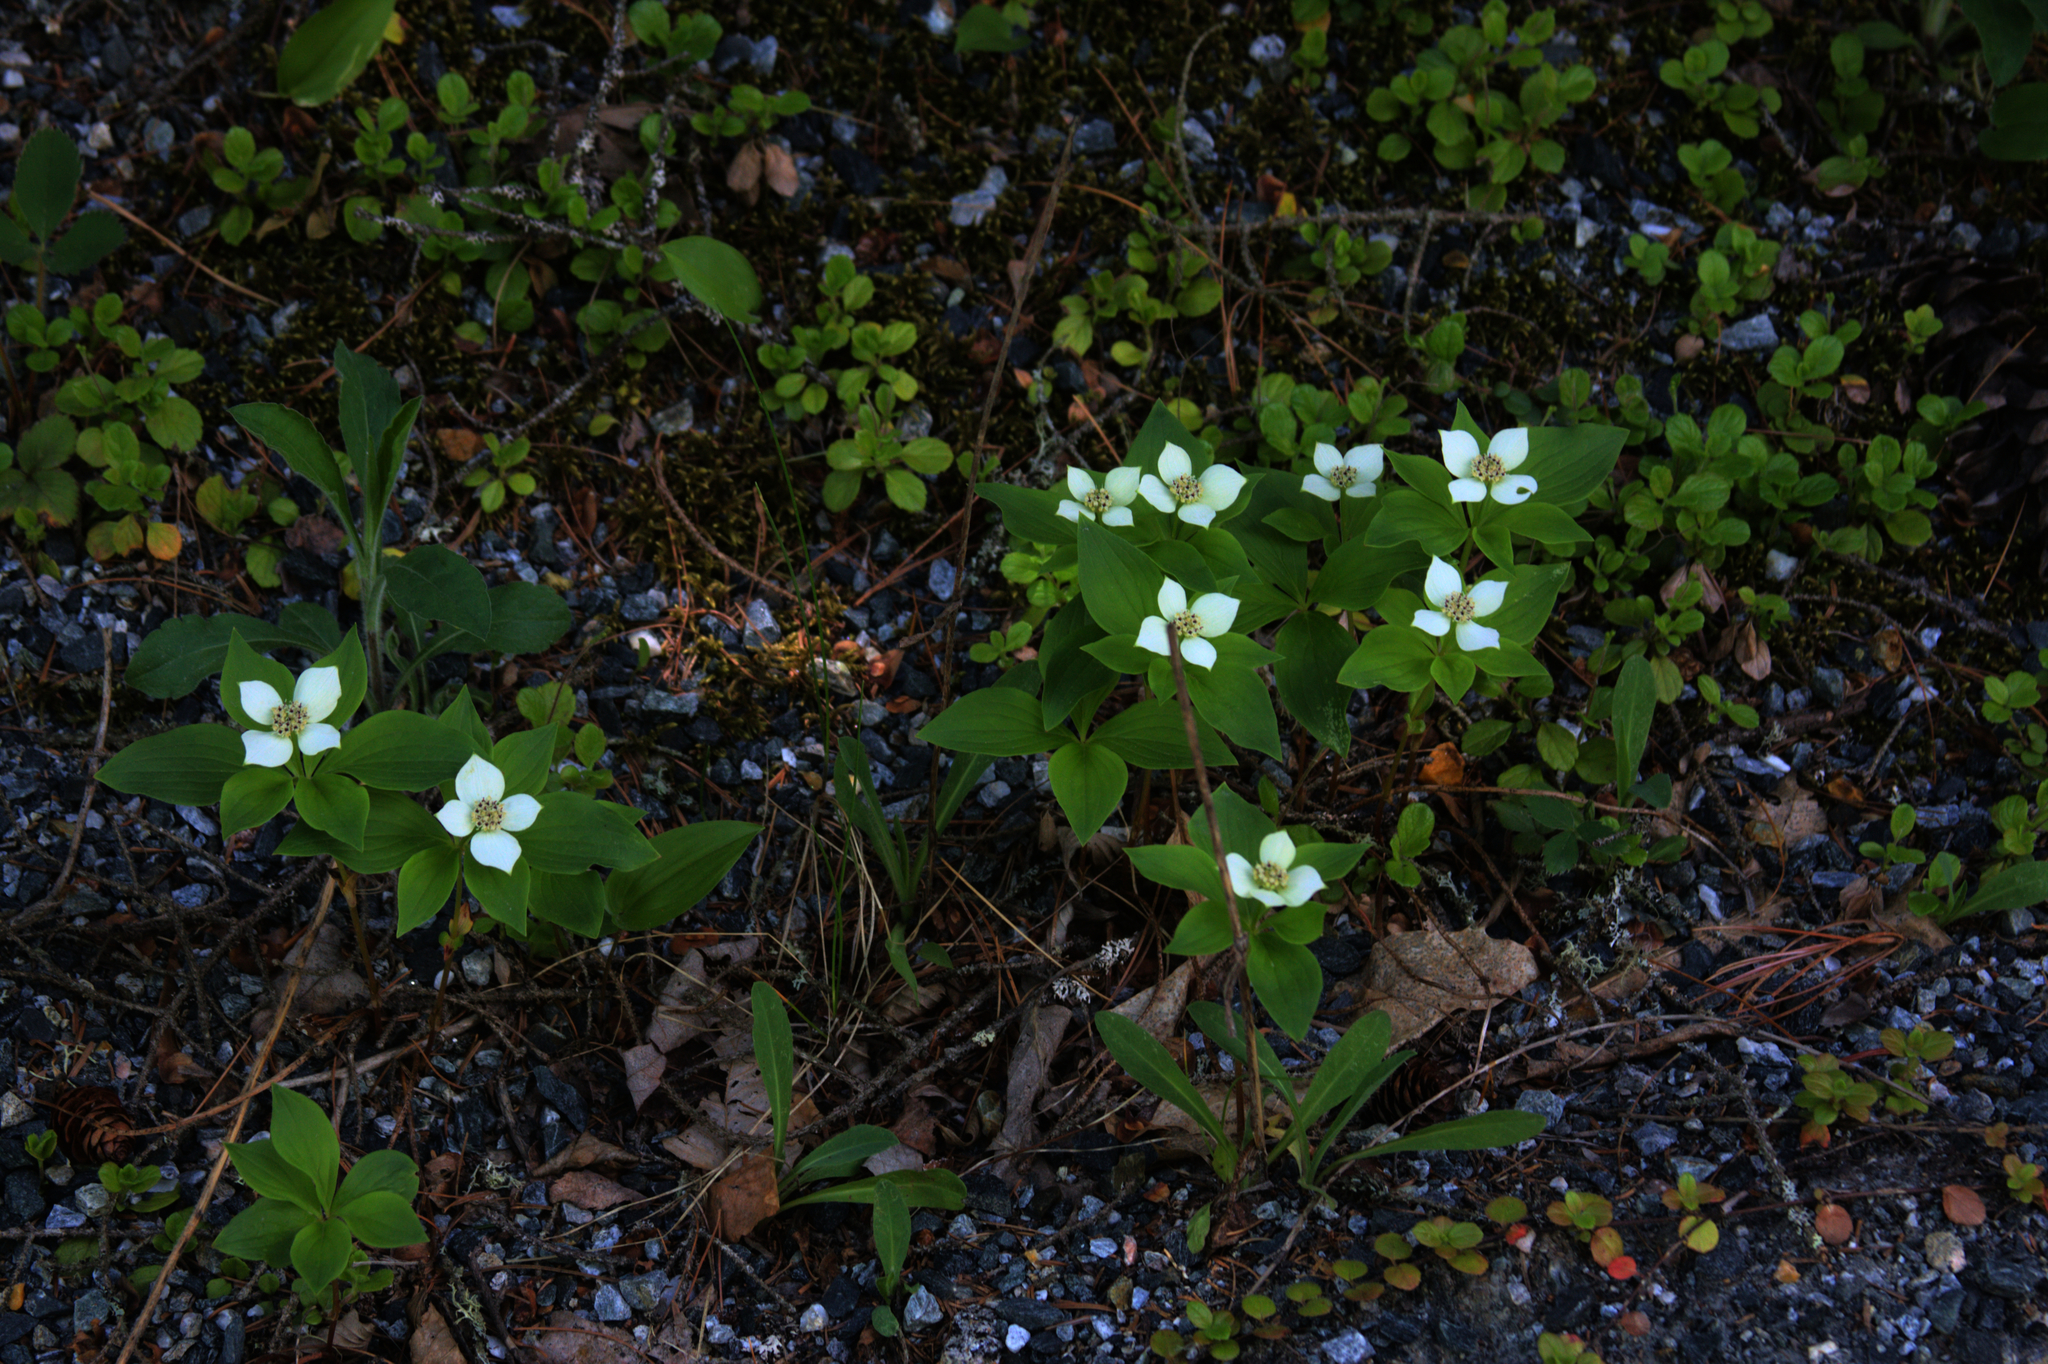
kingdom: Plantae
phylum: Tracheophyta
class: Magnoliopsida
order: Cornales
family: Cornaceae
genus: Cornus
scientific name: Cornus canadensis
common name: Creeping dogwood
